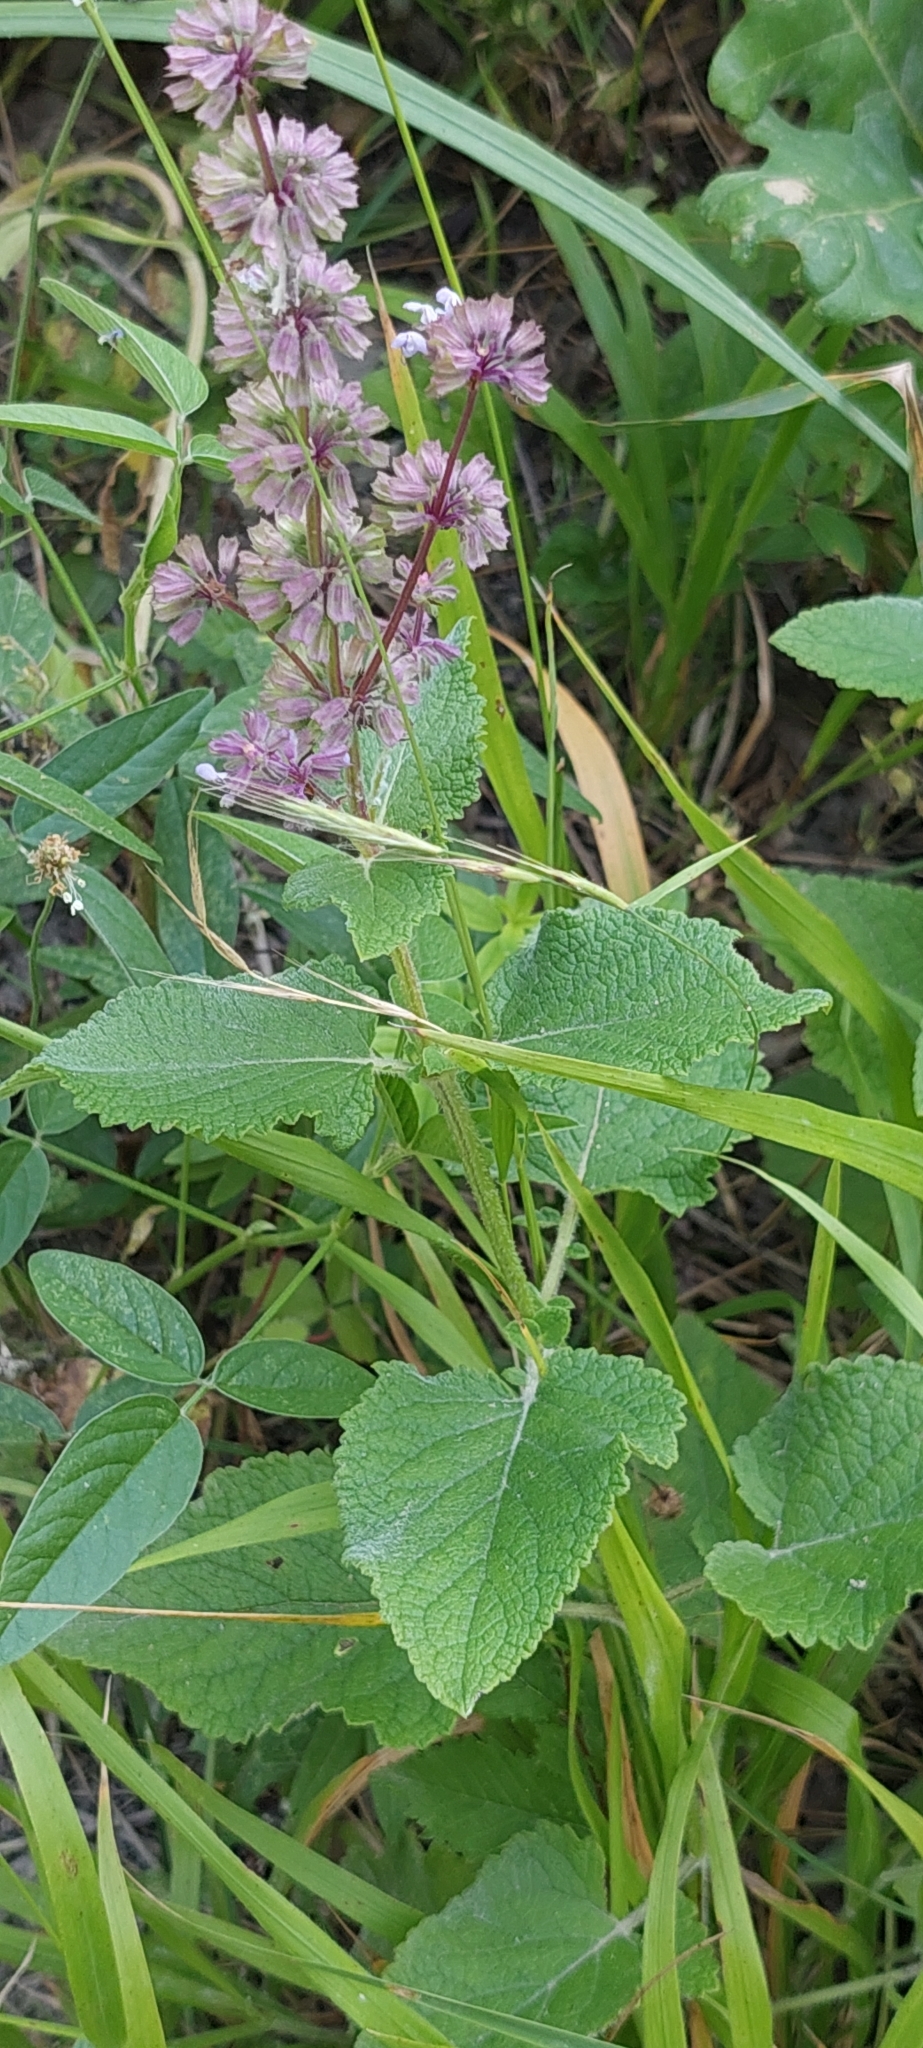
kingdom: Plantae
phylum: Tracheophyta
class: Magnoliopsida
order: Lamiales
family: Lamiaceae
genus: Salvia
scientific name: Salvia verticillata
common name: Whorled clary
